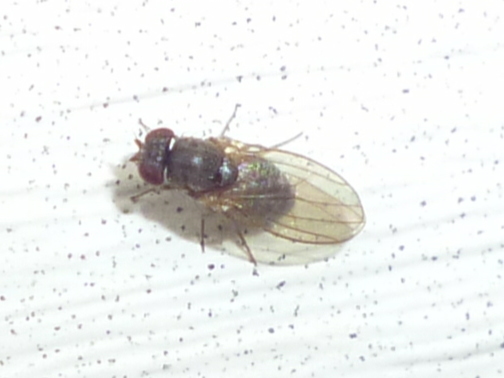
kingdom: Animalia
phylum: Arthropoda
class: Insecta
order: Diptera
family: Drosophilidae
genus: Drosophila
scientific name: Drosophila
